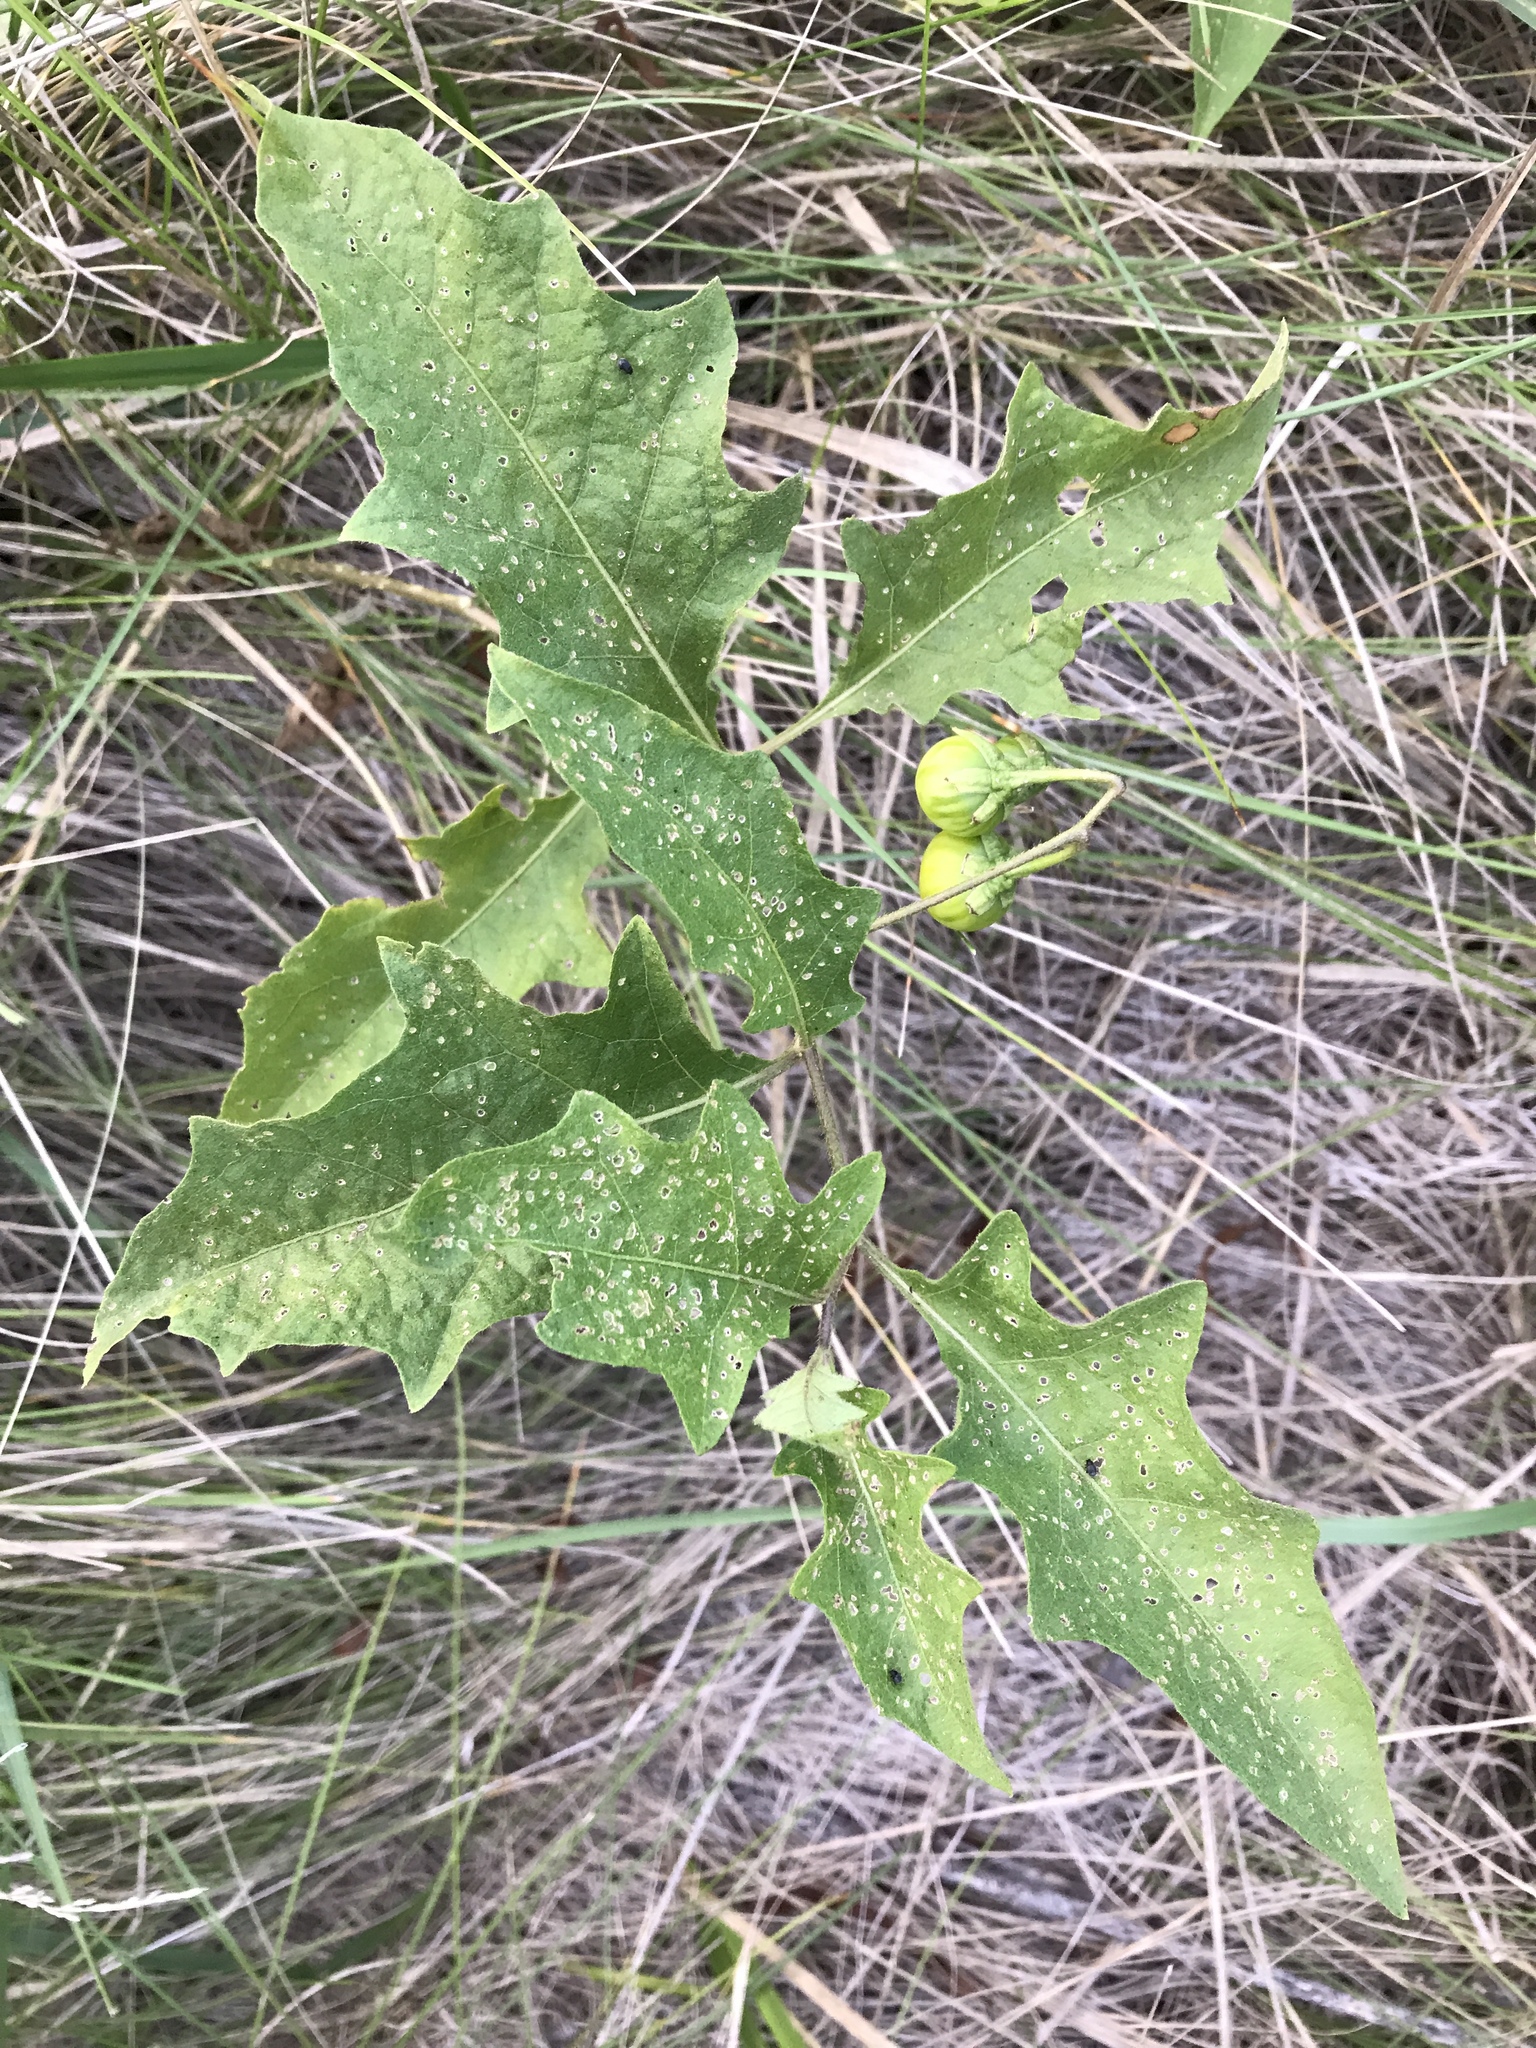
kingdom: Plantae
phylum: Tracheophyta
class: Magnoliopsida
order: Solanales
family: Solanaceae
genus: Solanum
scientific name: Solanum carolinense
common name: Horse-nettle
